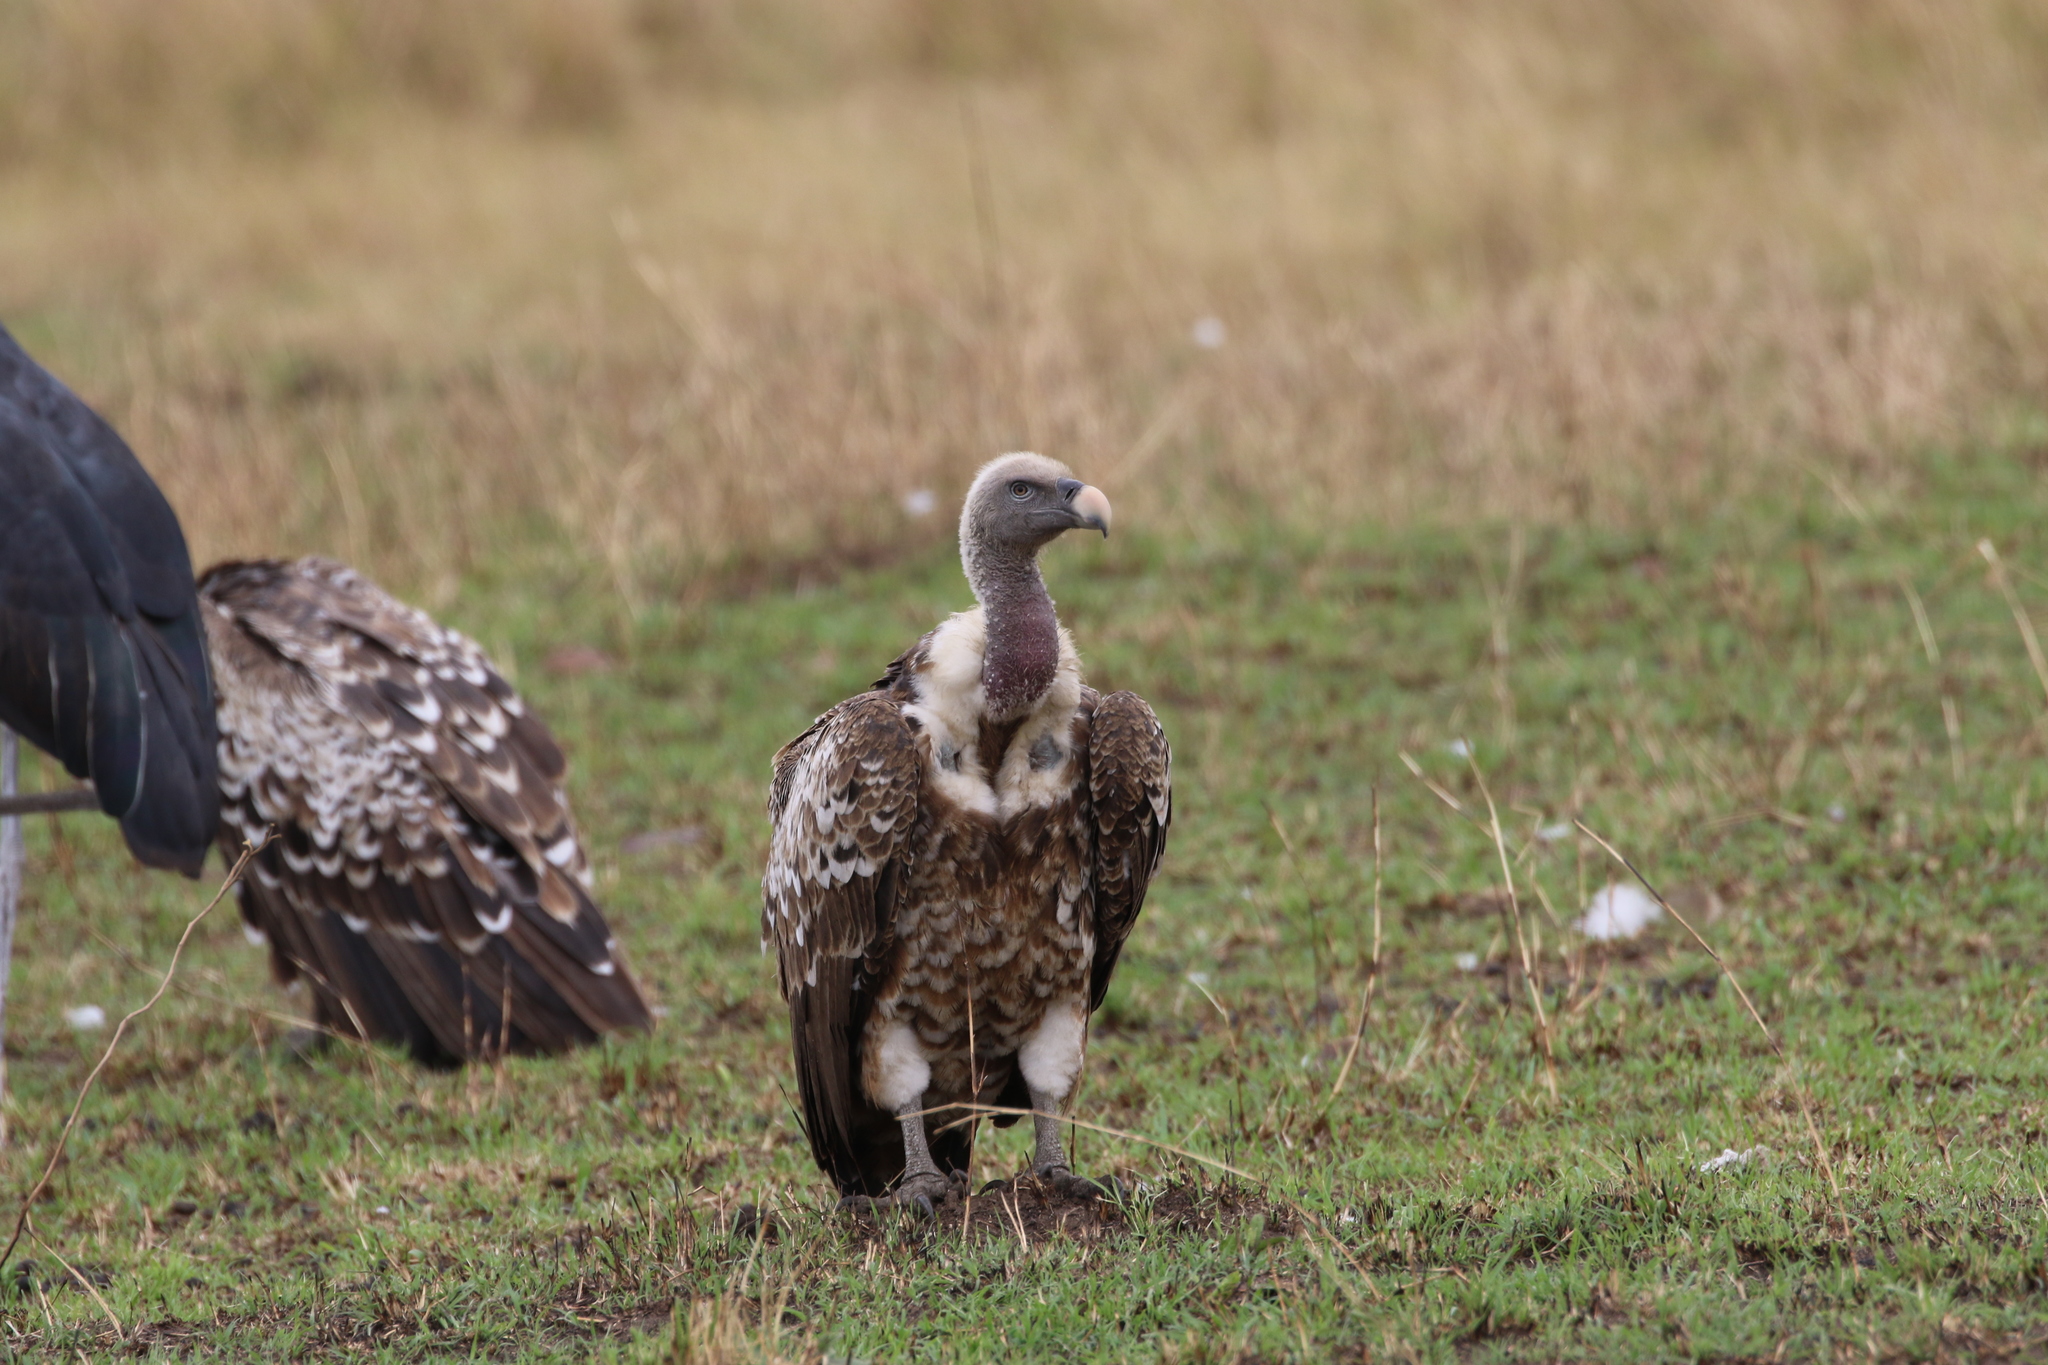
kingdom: Animalia
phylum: Chordata
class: Aves
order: Accipitriformes
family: Accipitridae
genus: Gyps
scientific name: Gyps rueppellii
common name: Rüppell's vulture
